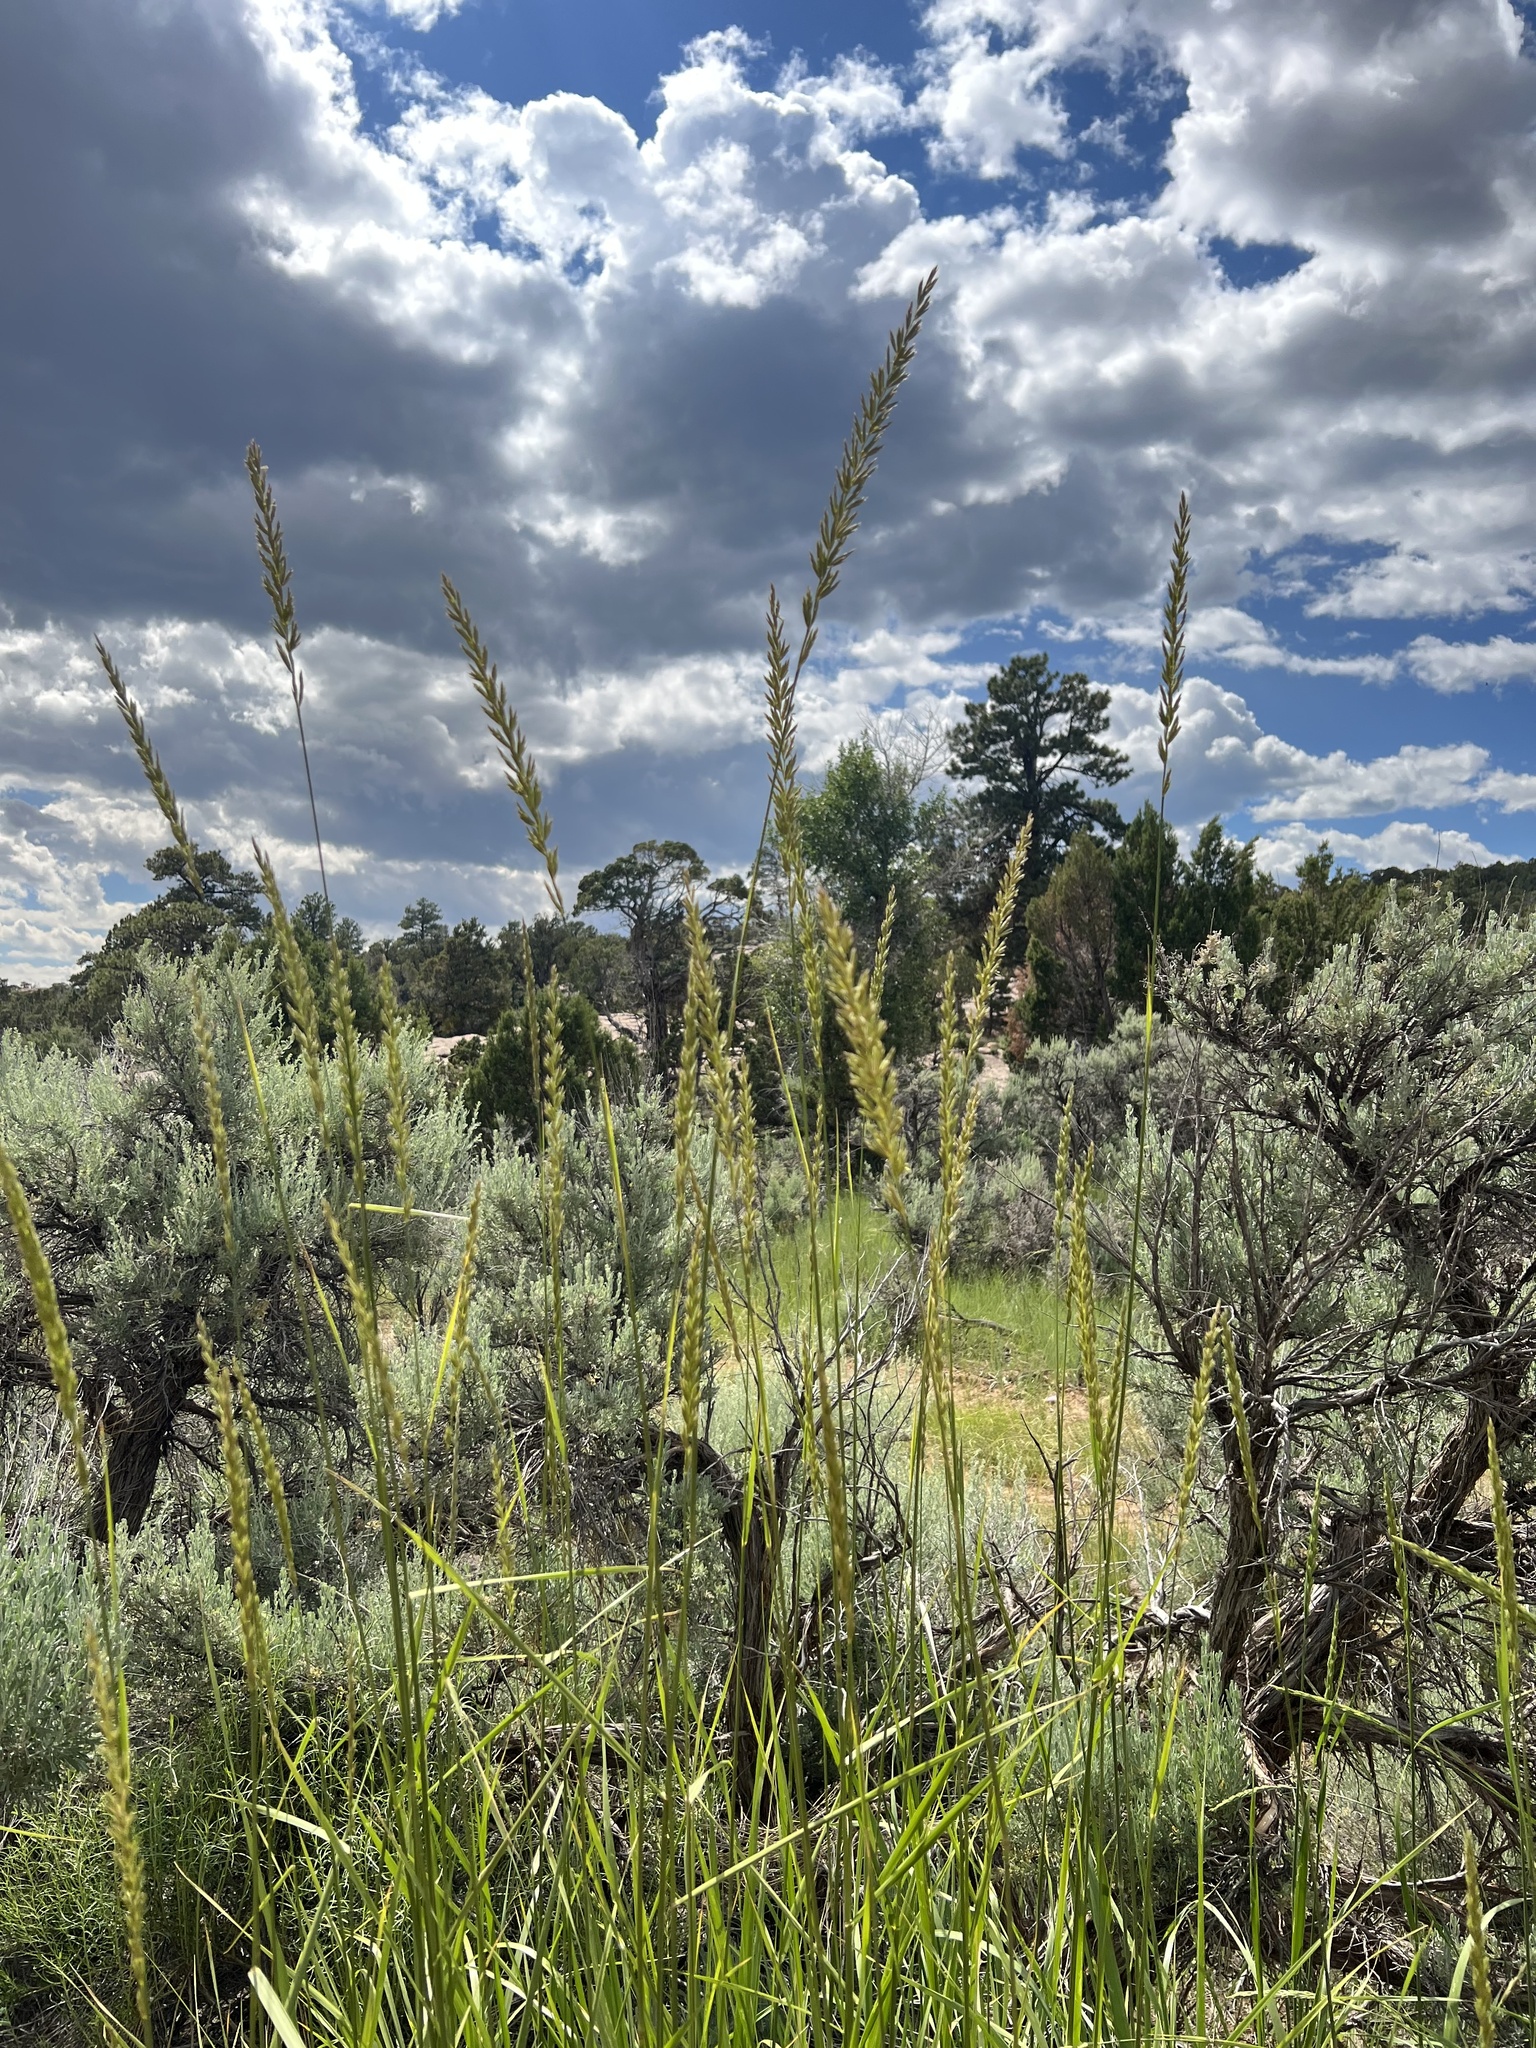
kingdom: Plantae
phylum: Tracheophyta
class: Liliopsida
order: Poales
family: Poaceae
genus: Leymus
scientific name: Leymus cinereus
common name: Basin wild rye
